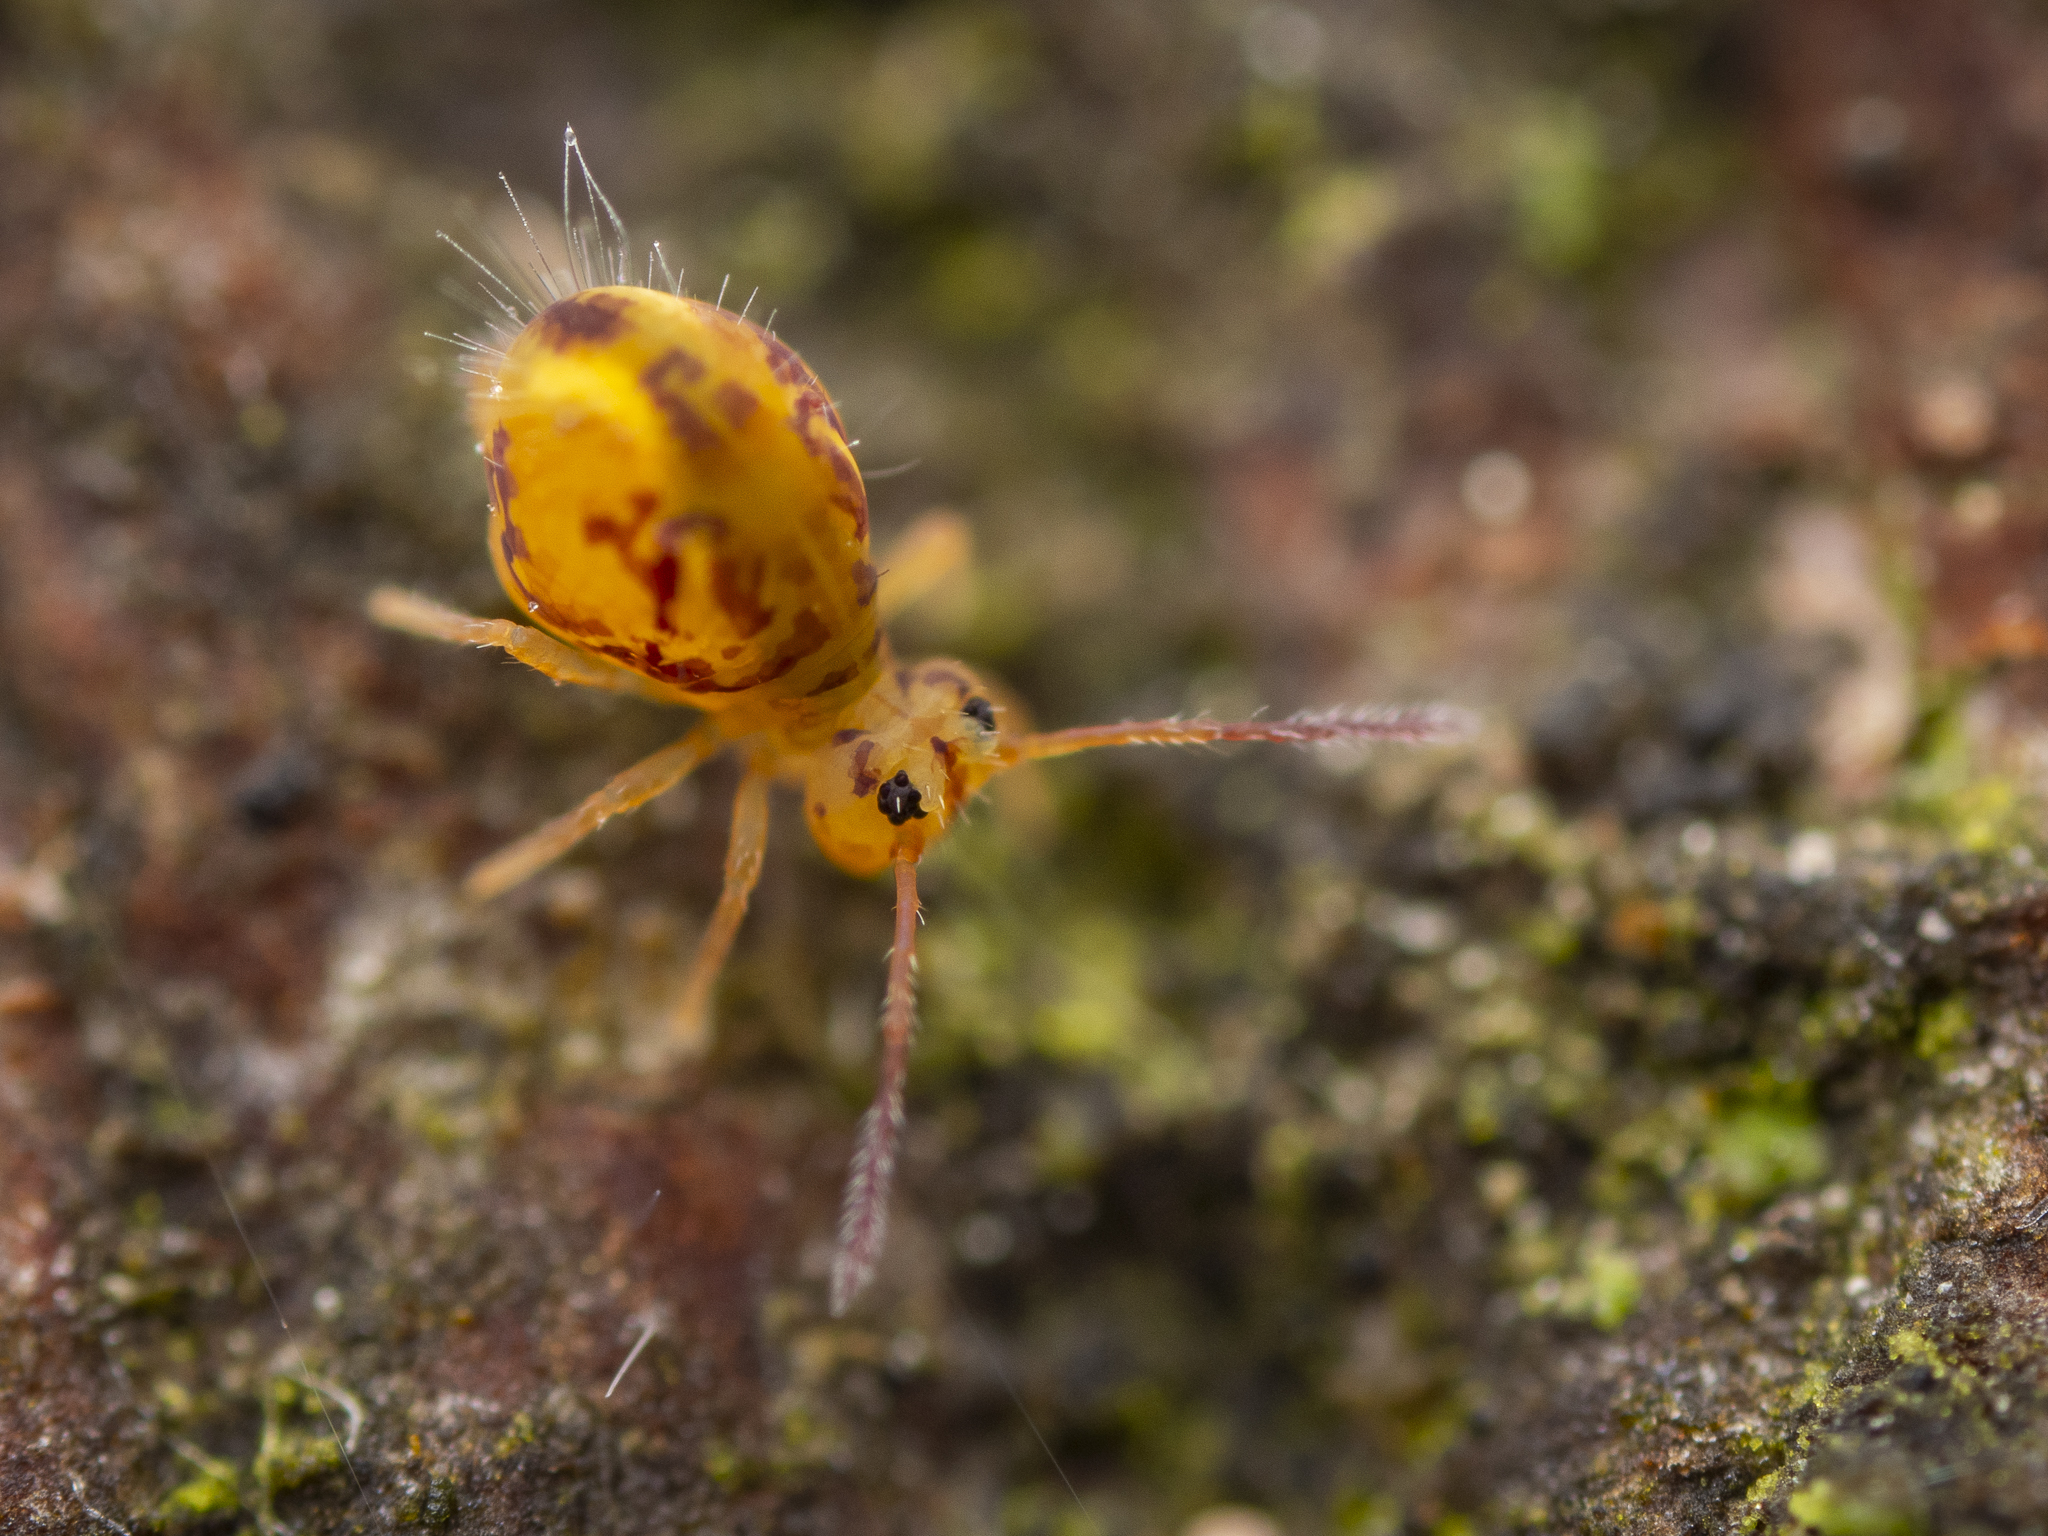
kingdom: Animalia
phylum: Arthropoda
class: Collembola
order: Symphypleona
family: Dicyrtomidae
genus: Dicyrtomina
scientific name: Dicyrtomina ornata
